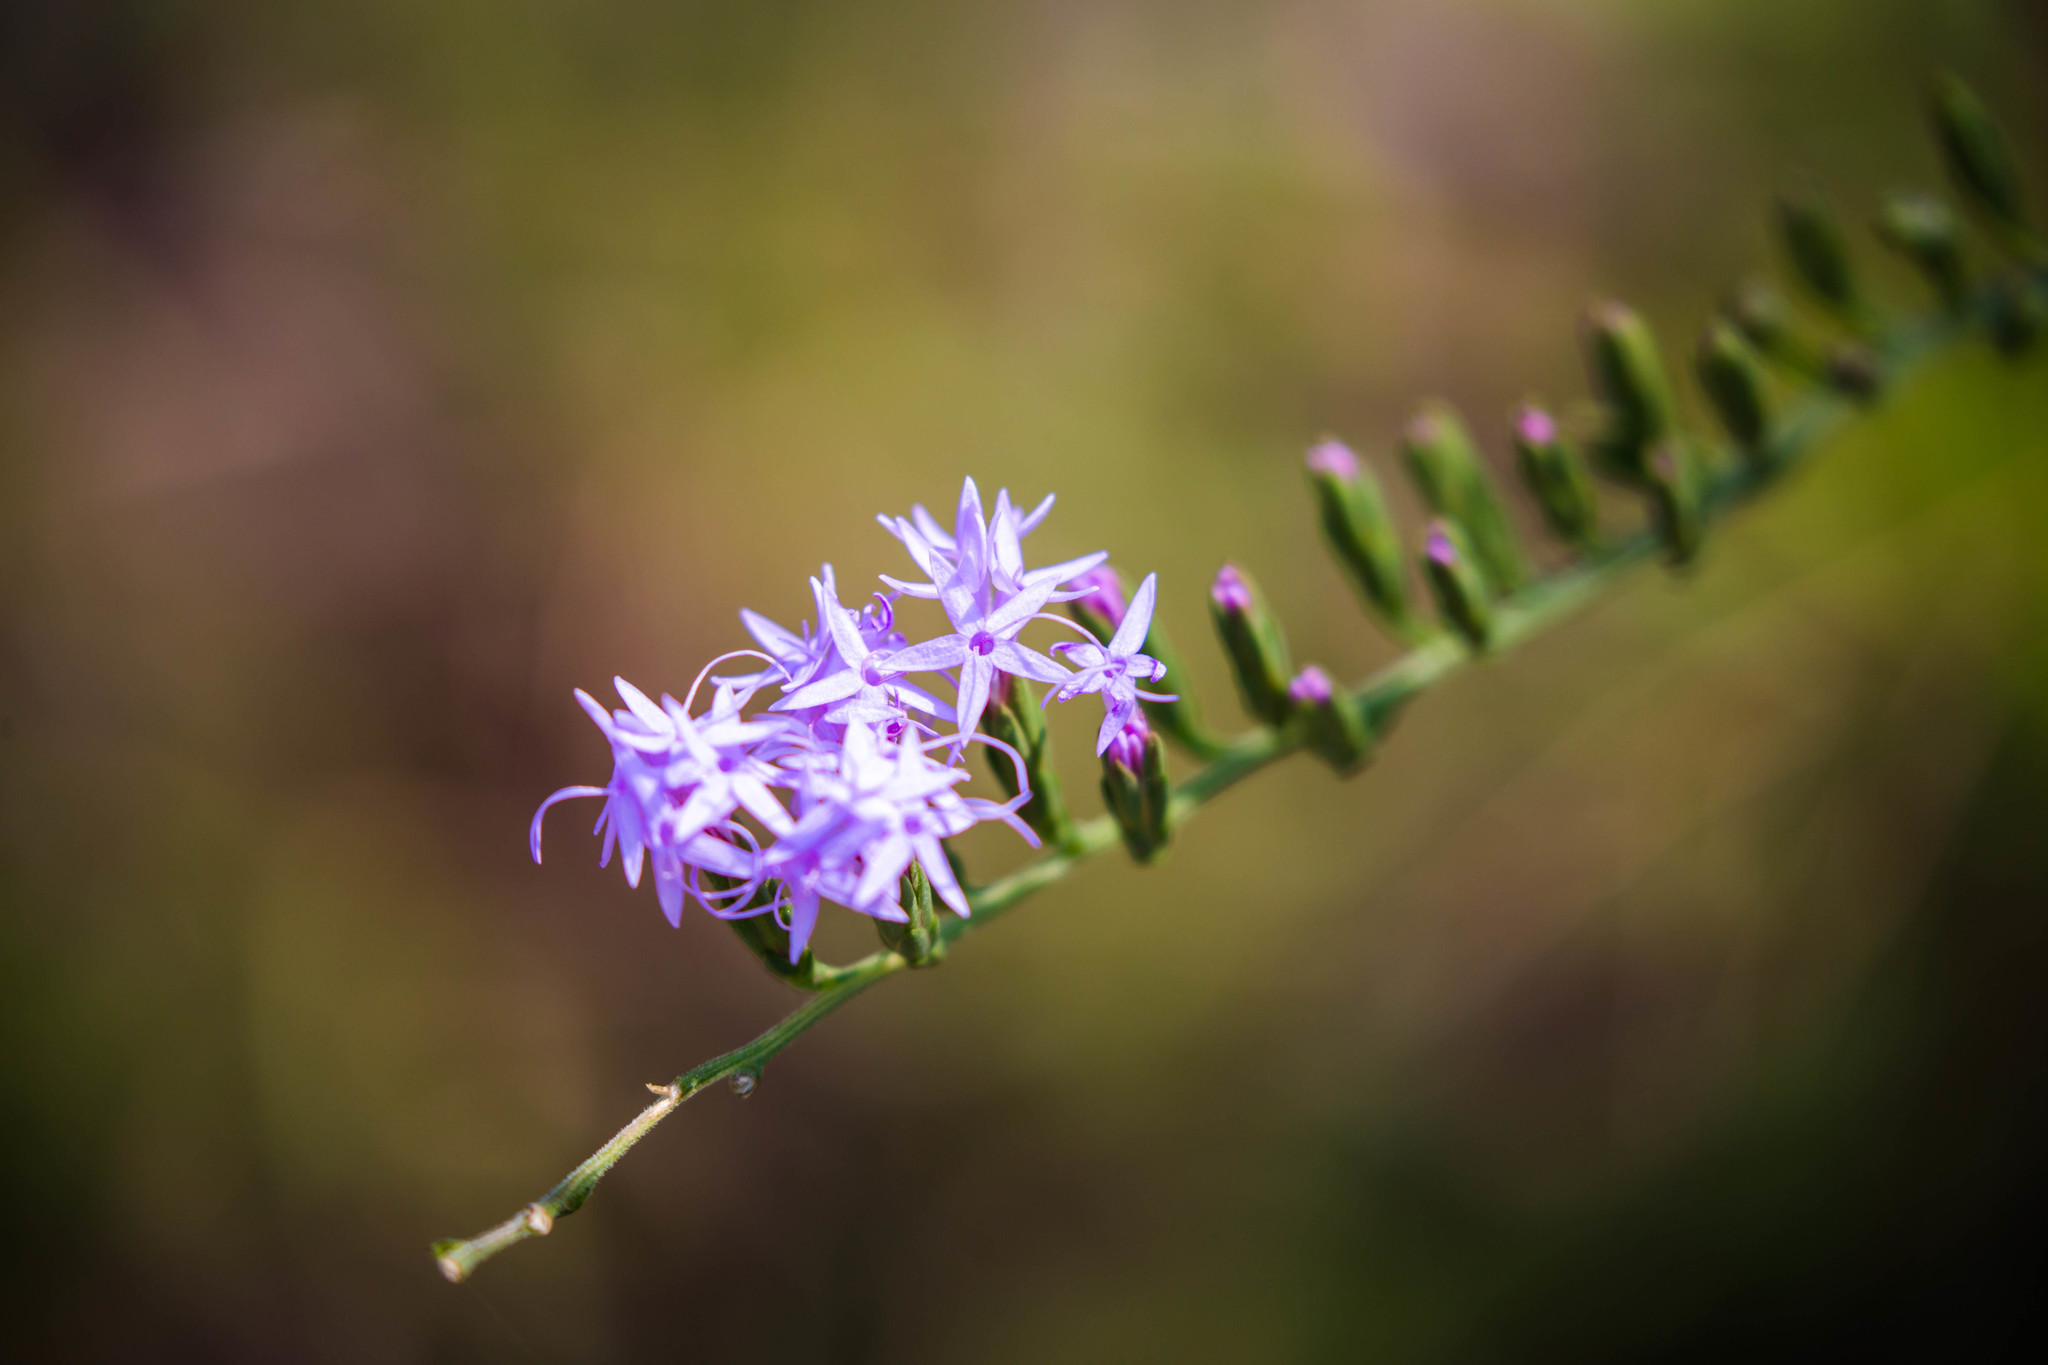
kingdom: Plantae
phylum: Tracheophyta
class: Magnoliopsida
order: Asterales
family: Asteraceae
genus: Liatris
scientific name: Liatris pauciflora
